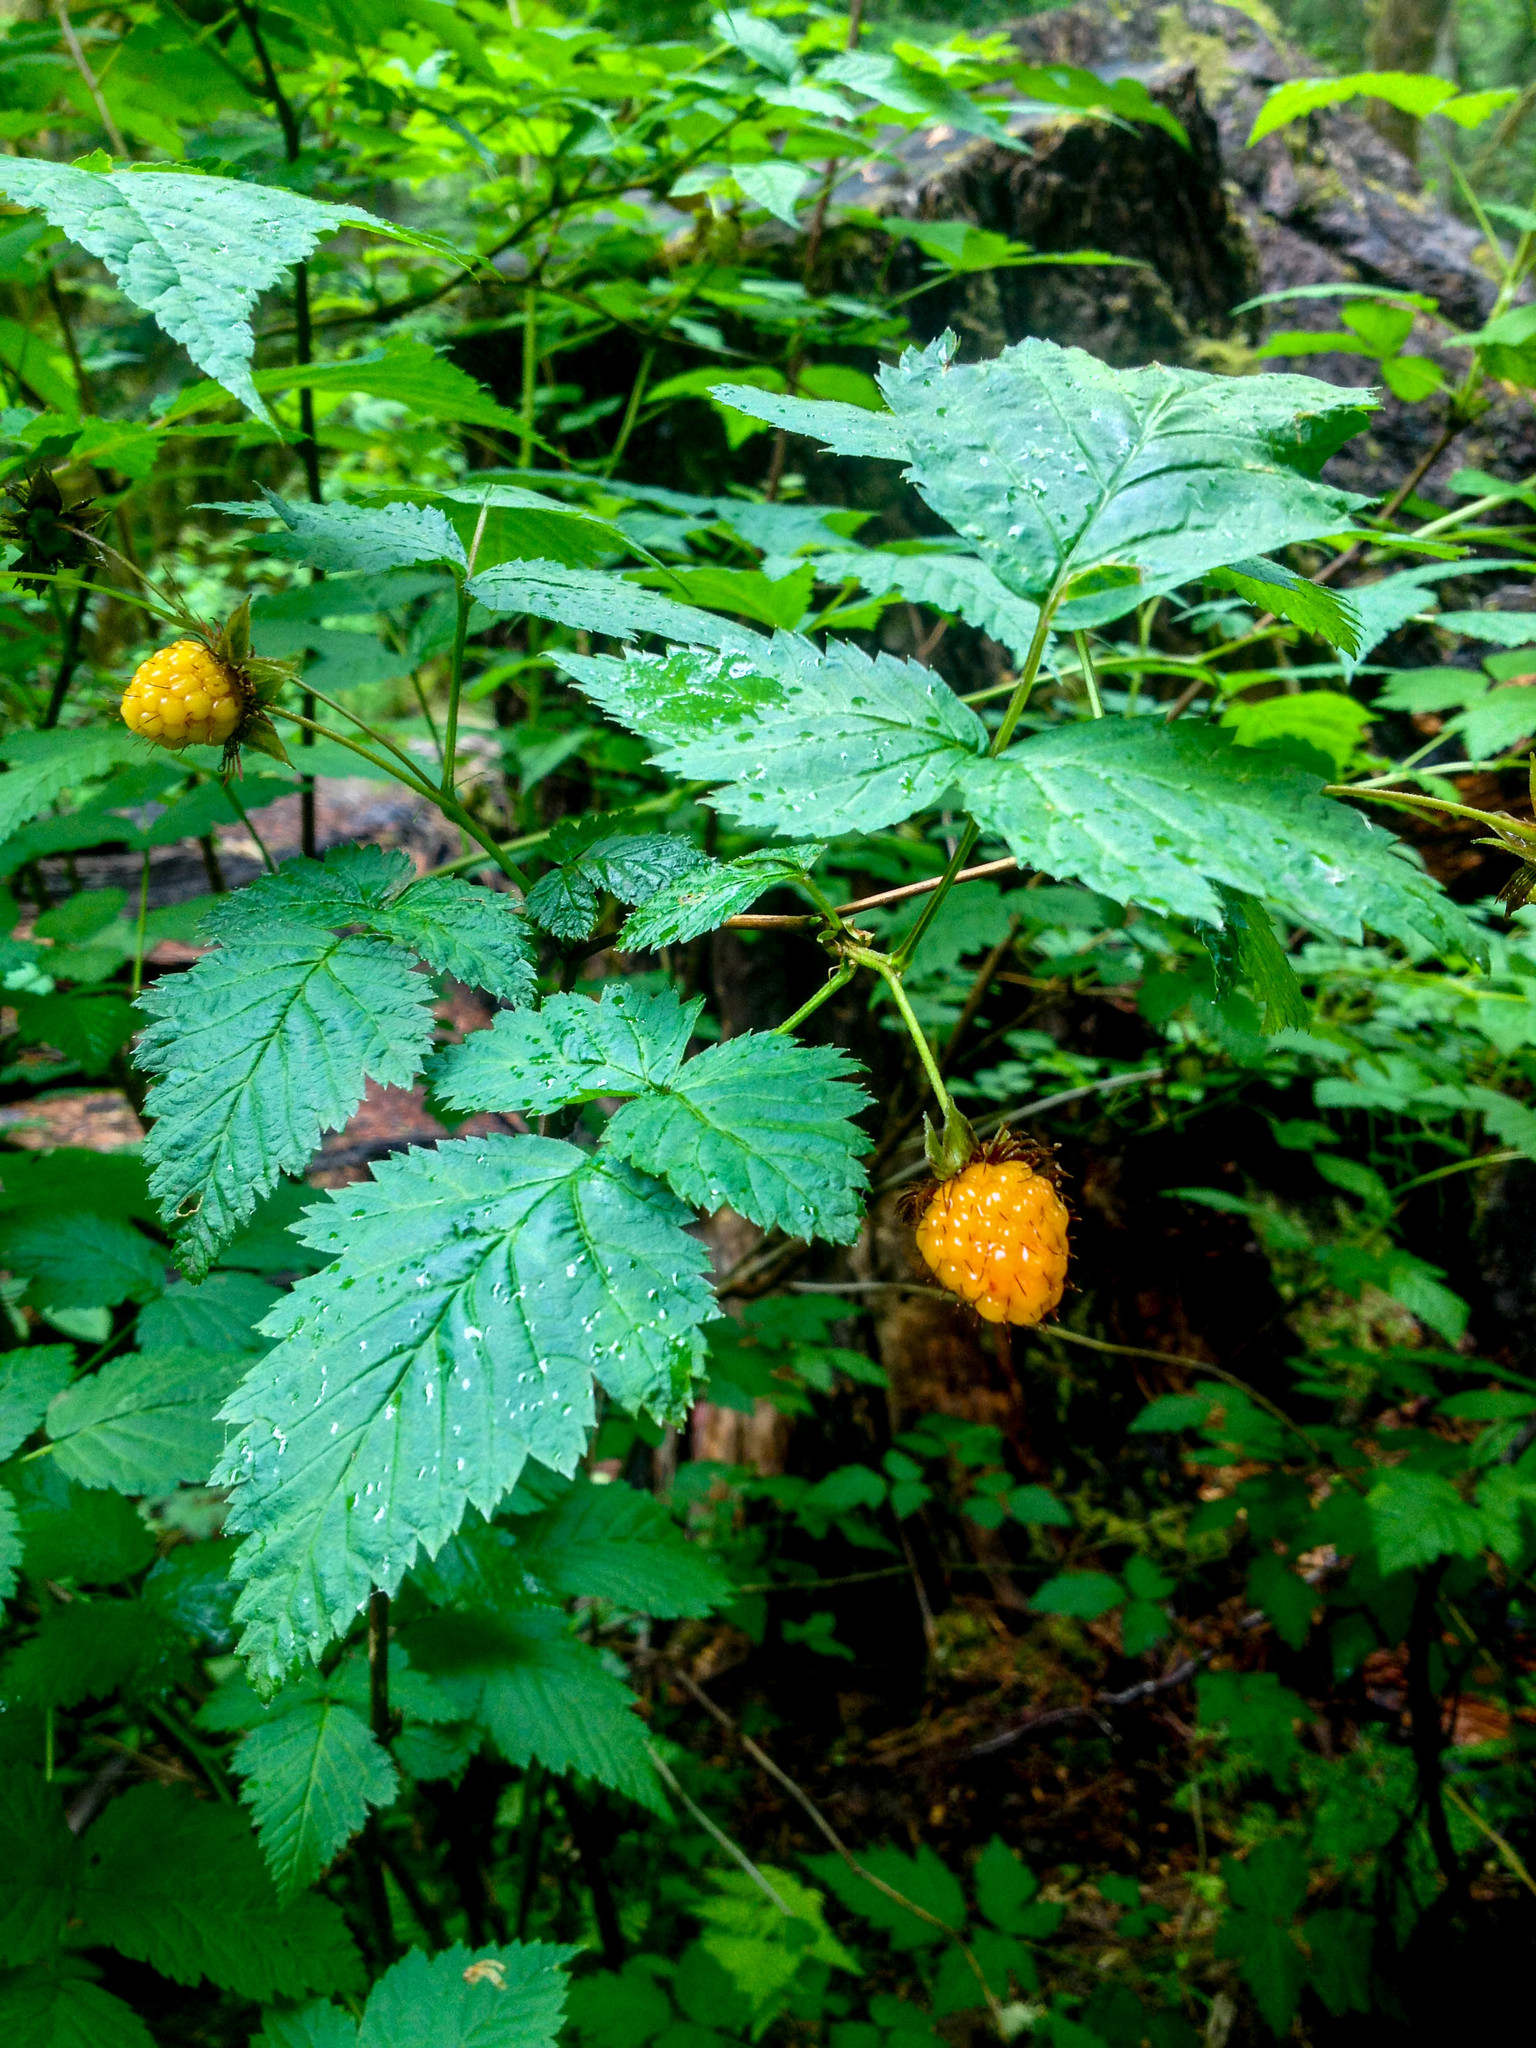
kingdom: Plantae
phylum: Tracheophyta
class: Magnoliopsida
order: Rosales
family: Rosaceae
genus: Rubus
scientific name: Rubus spectabilis
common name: Salmonberry
